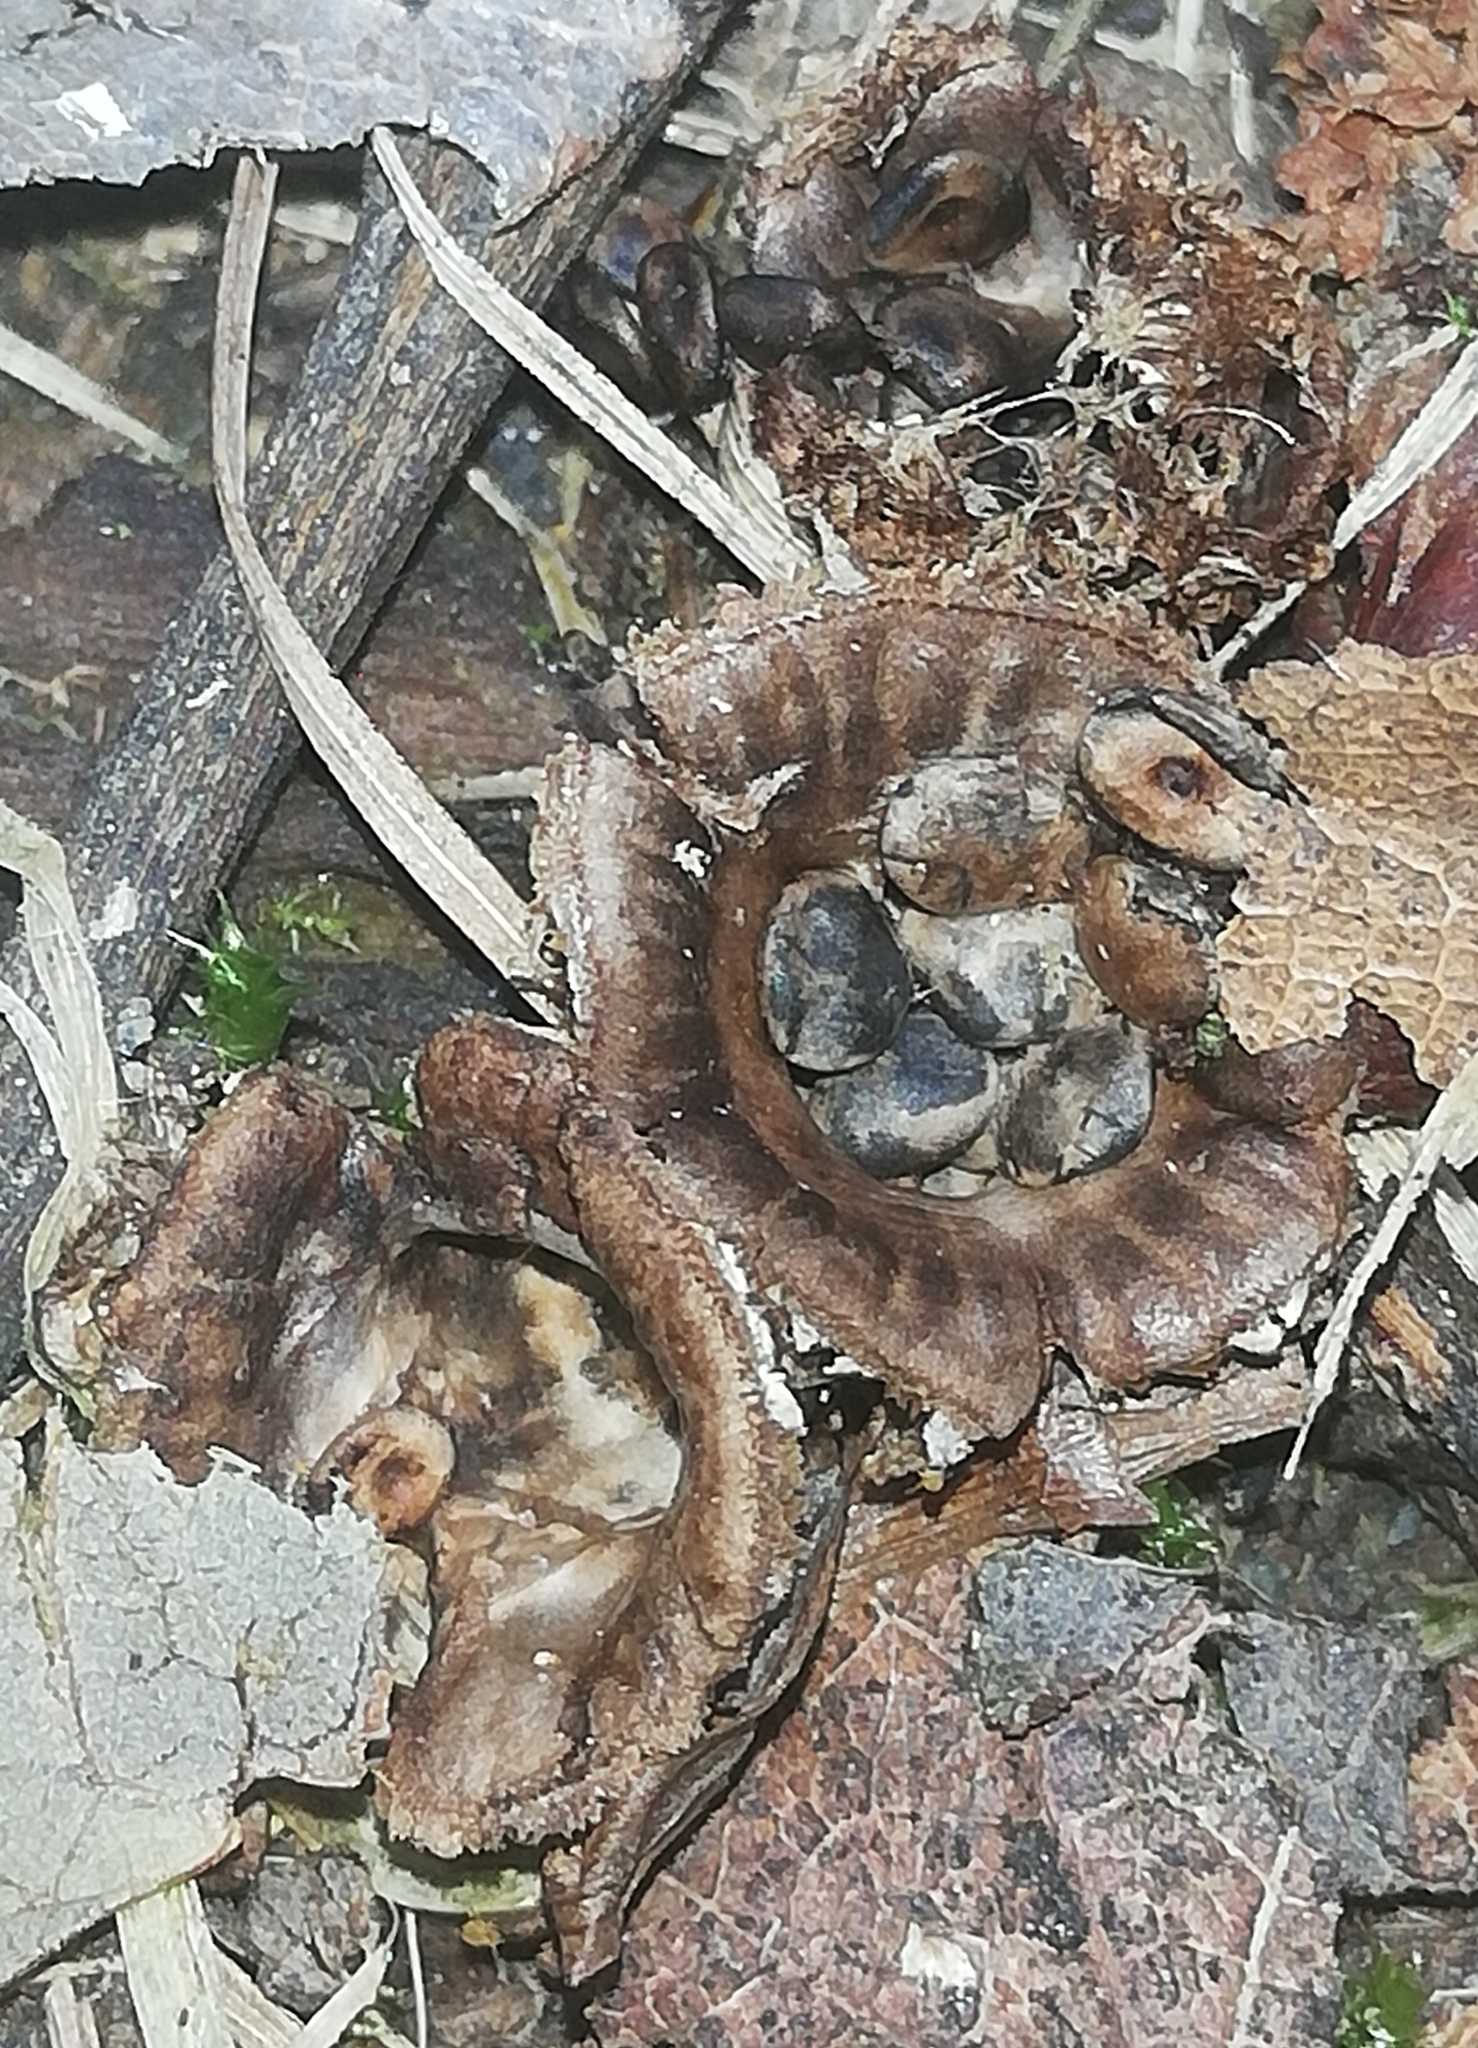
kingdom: Fungi
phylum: Basidiomycota
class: Agaricomycetes
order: Agaricales
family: Agaricaceae
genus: Cyathus
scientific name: Cyathus striatus
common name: Fluted bird's nest
